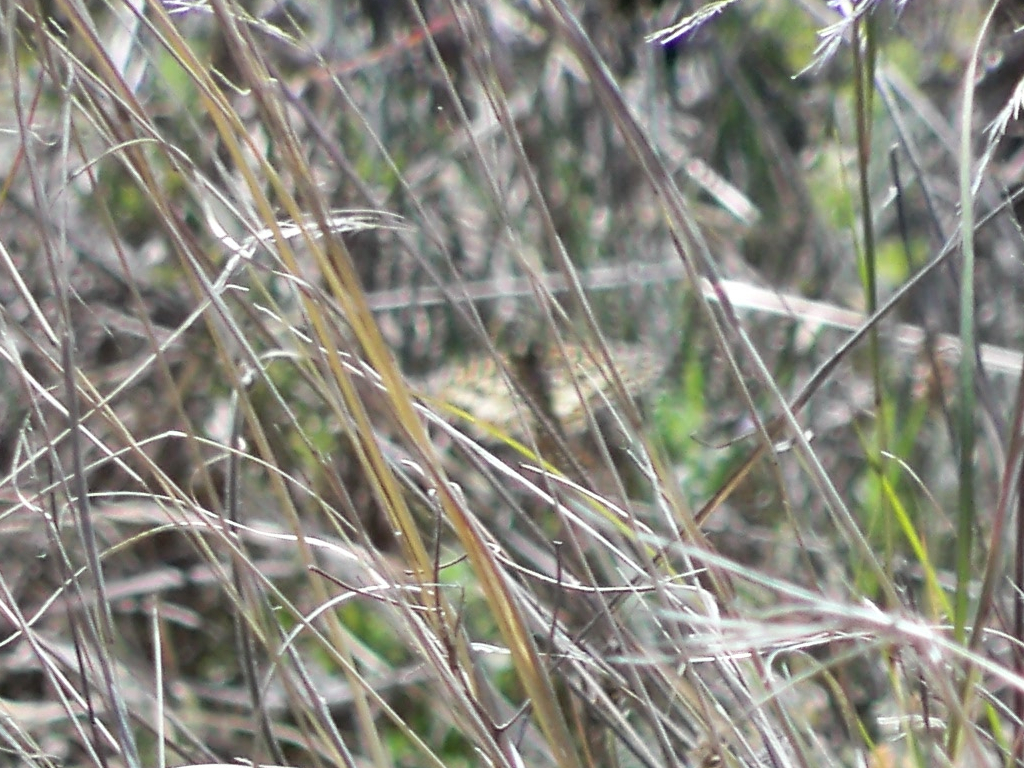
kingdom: Animalia
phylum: Arthropoda
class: Insecta
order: Lepidoptera
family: Papilionidae
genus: Zerynthia
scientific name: Zerynthia rumina
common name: Spanish festoon
